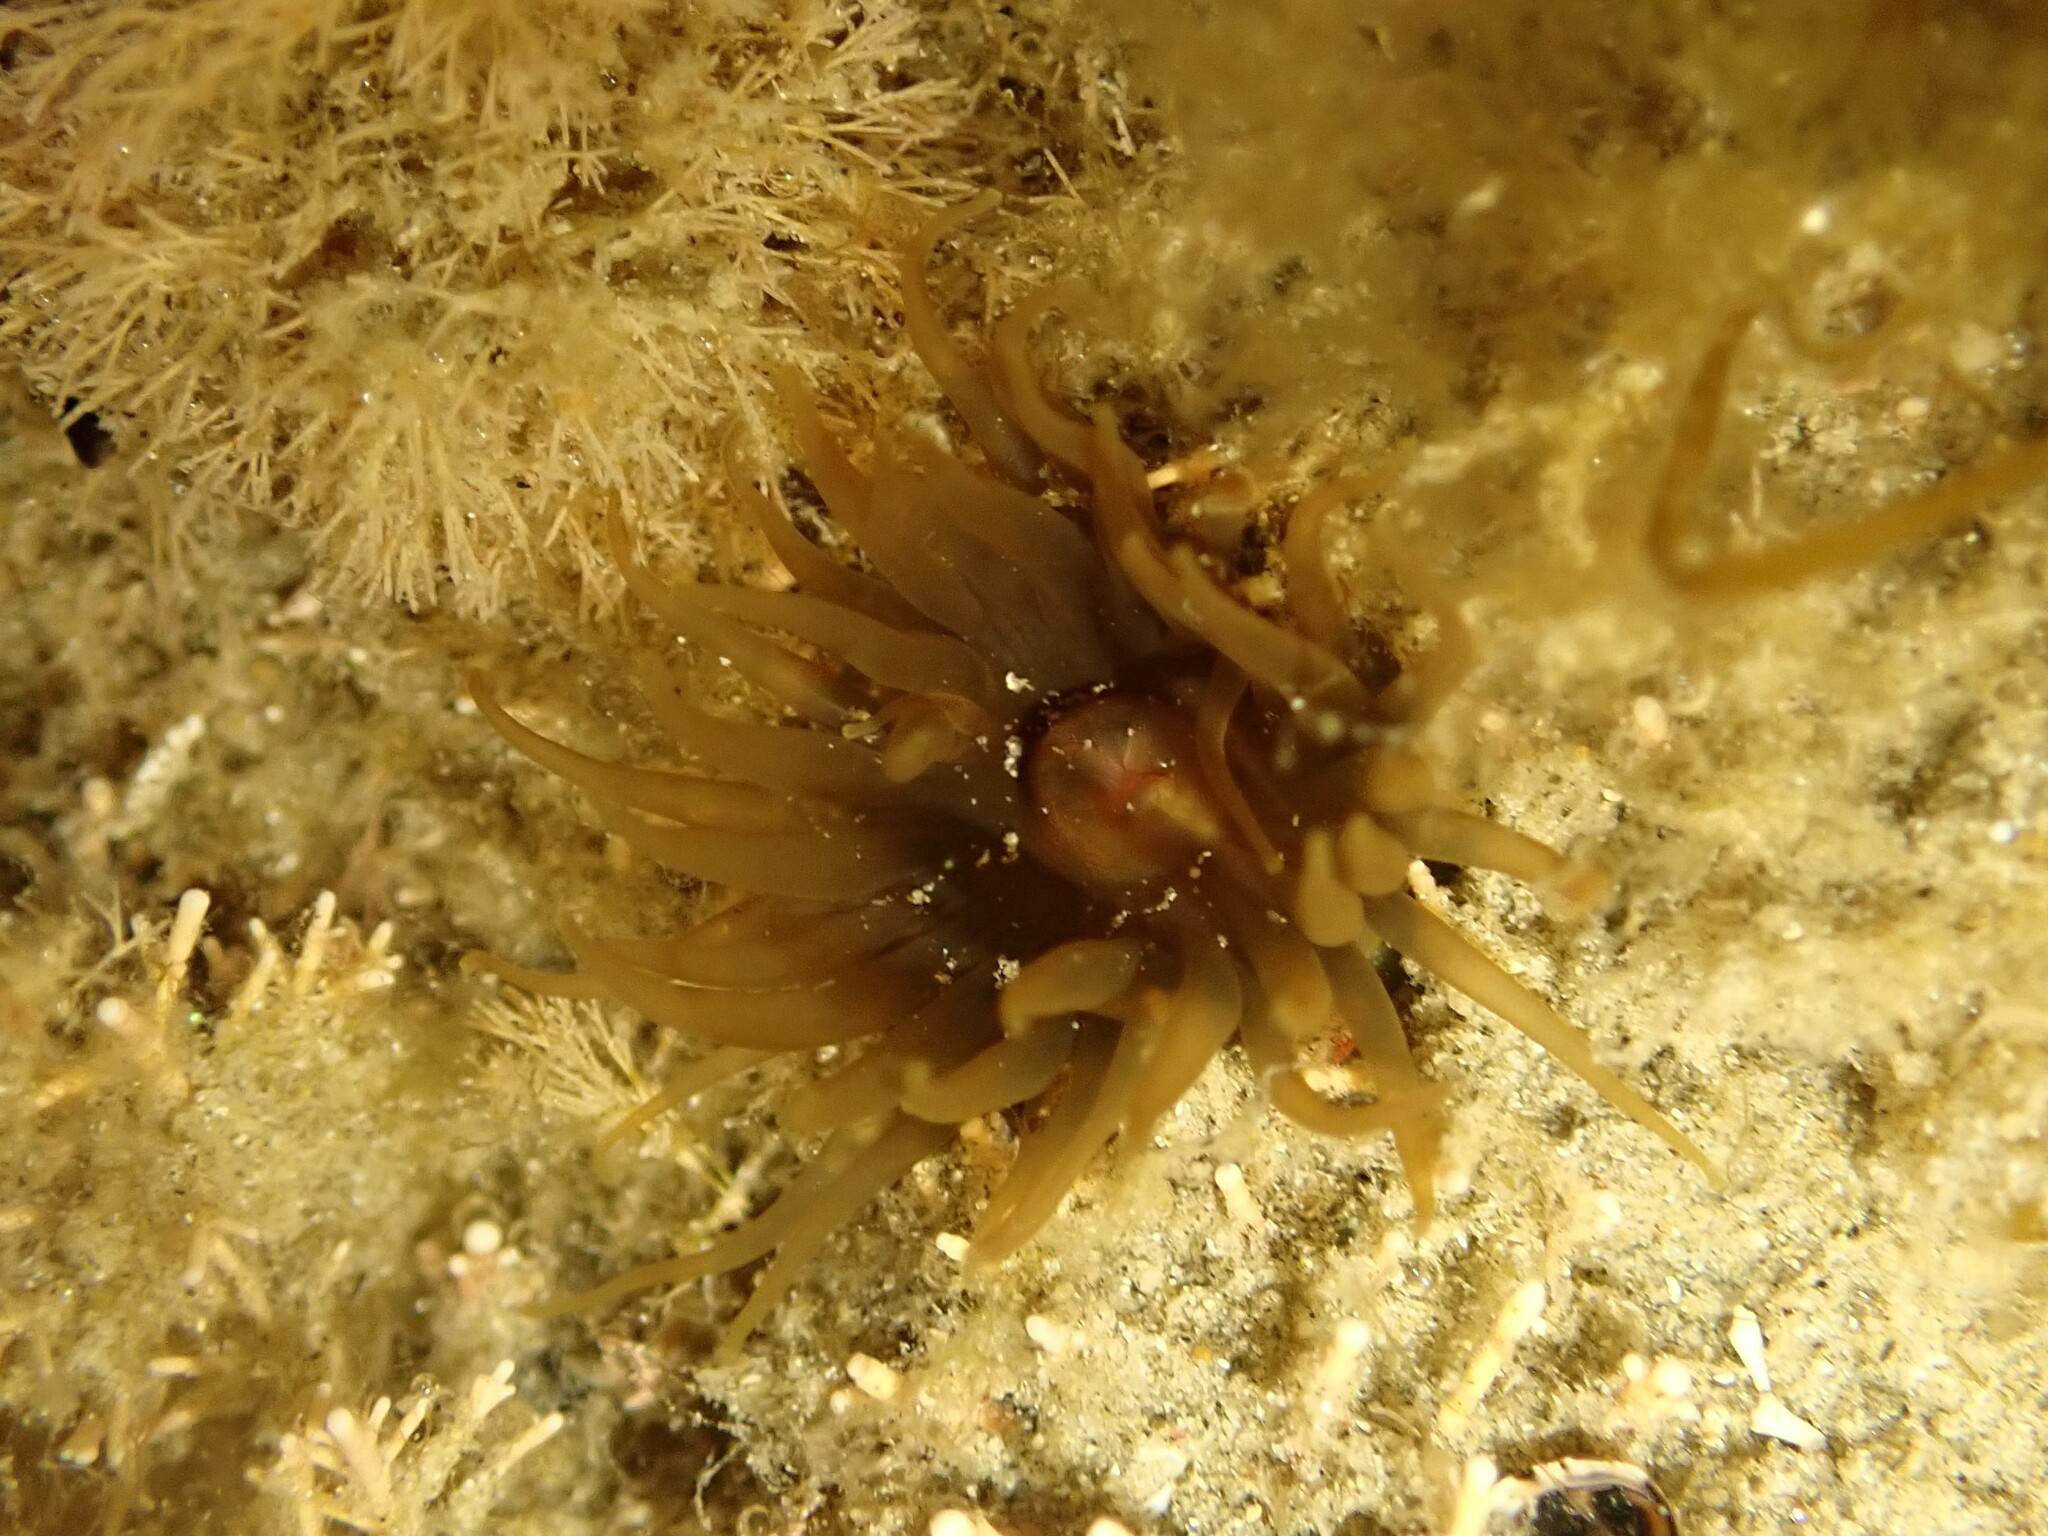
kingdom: Animalia
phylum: Cnidaria
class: Anthozoa
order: Actiniaria
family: Actiniidae
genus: Isactinia
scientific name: Isactinia olivacea
